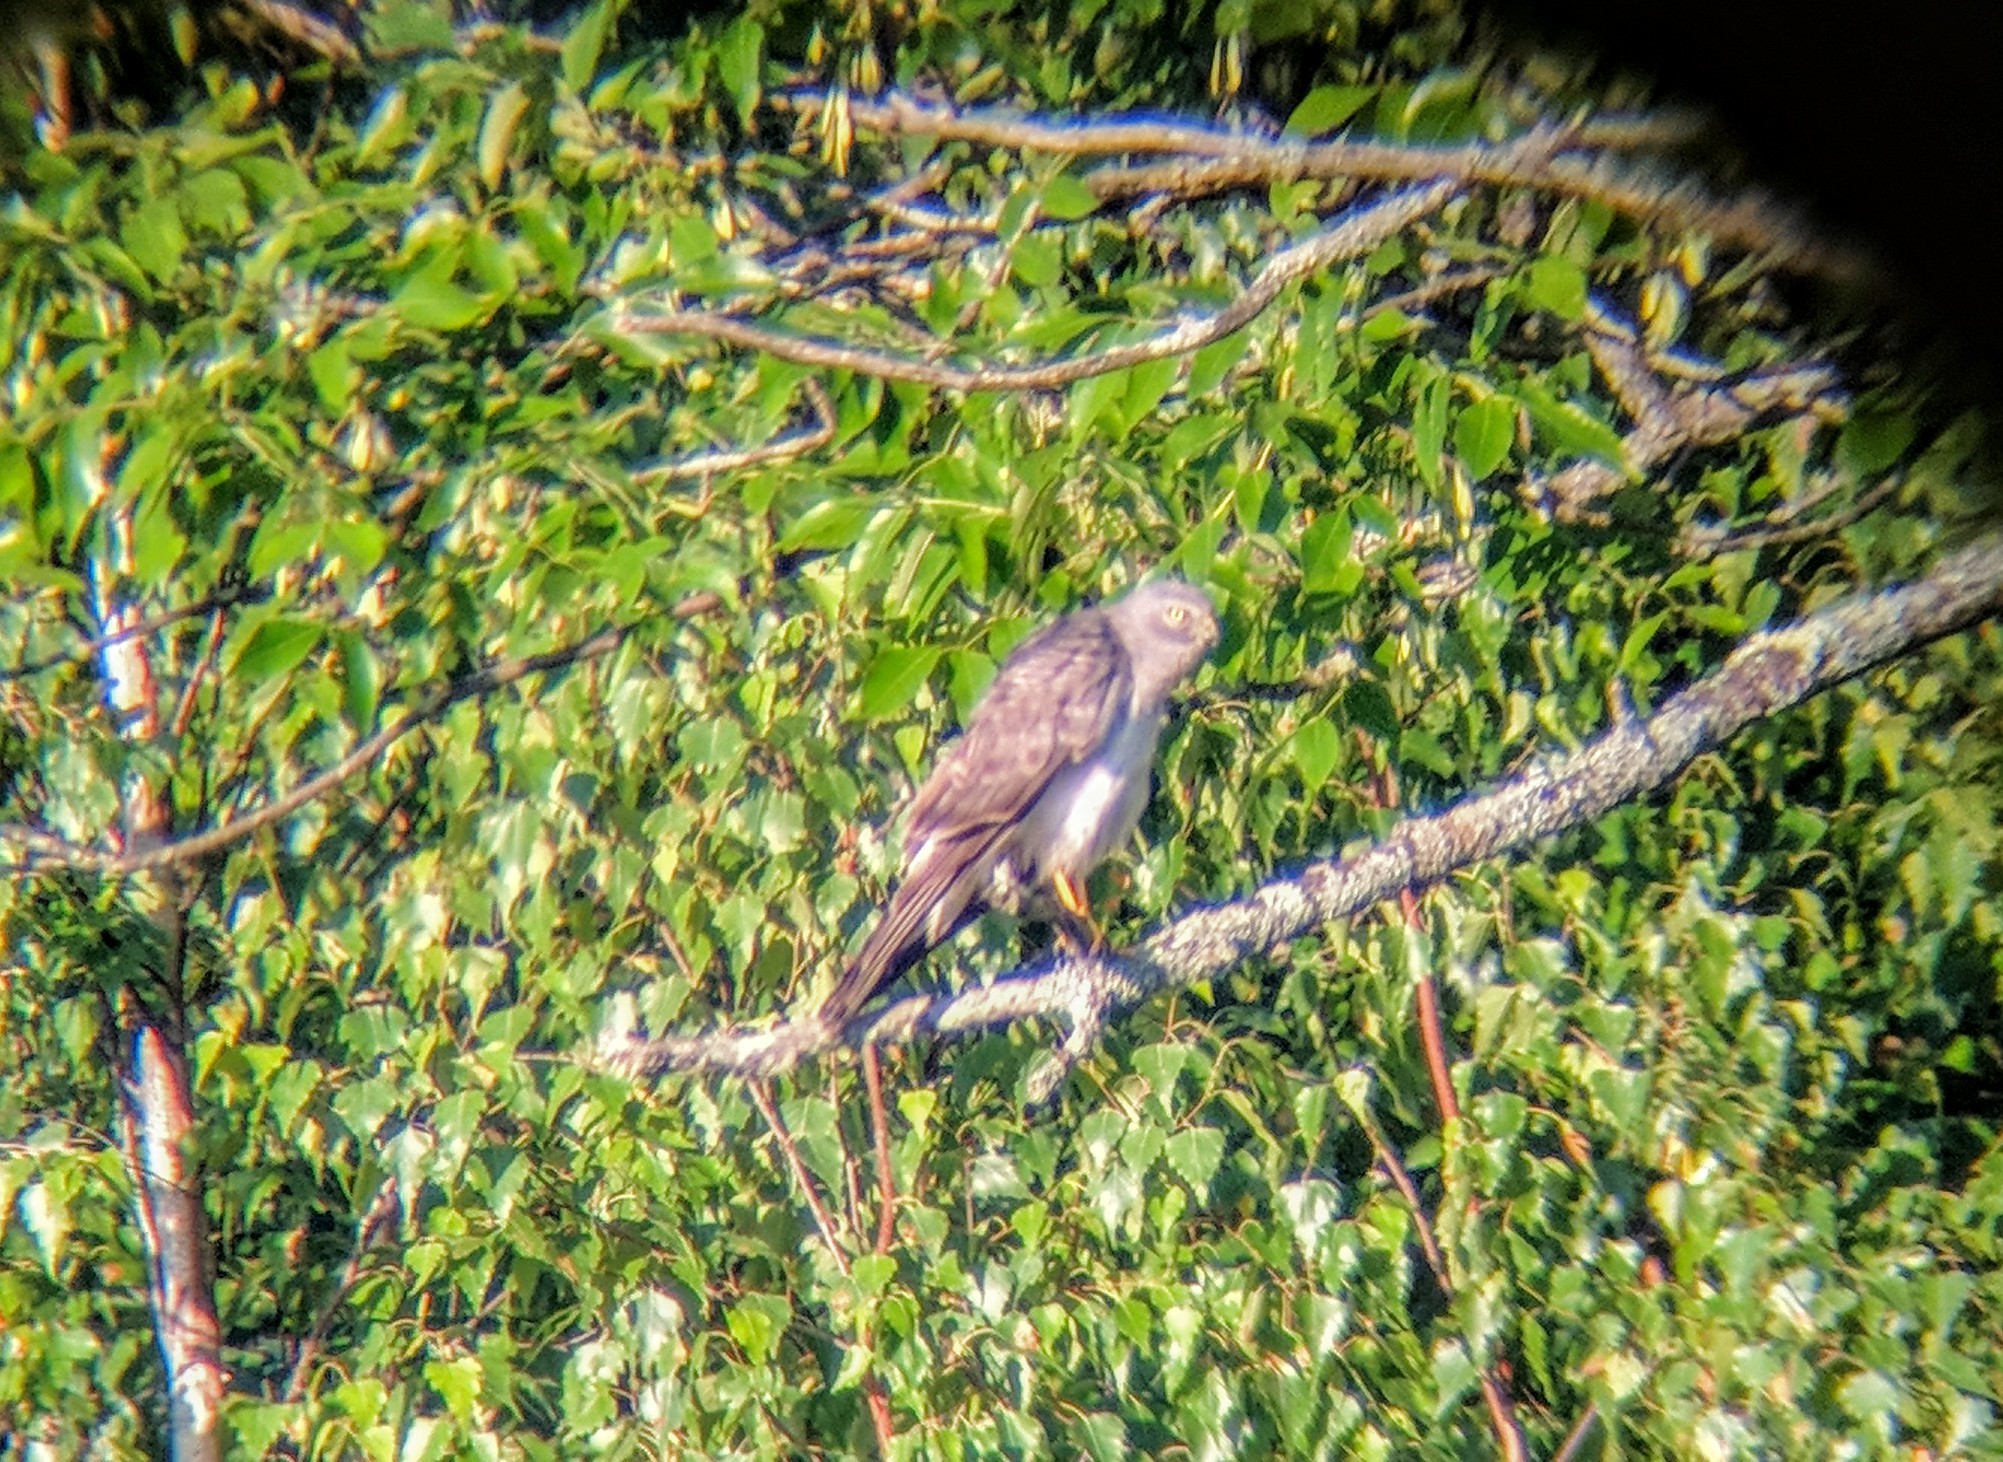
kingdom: Animalia
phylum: Chordata
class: Aves
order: Accipitriformes
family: Accipitridae
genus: Circus
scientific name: Circus cyaneus
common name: Hen harrier
